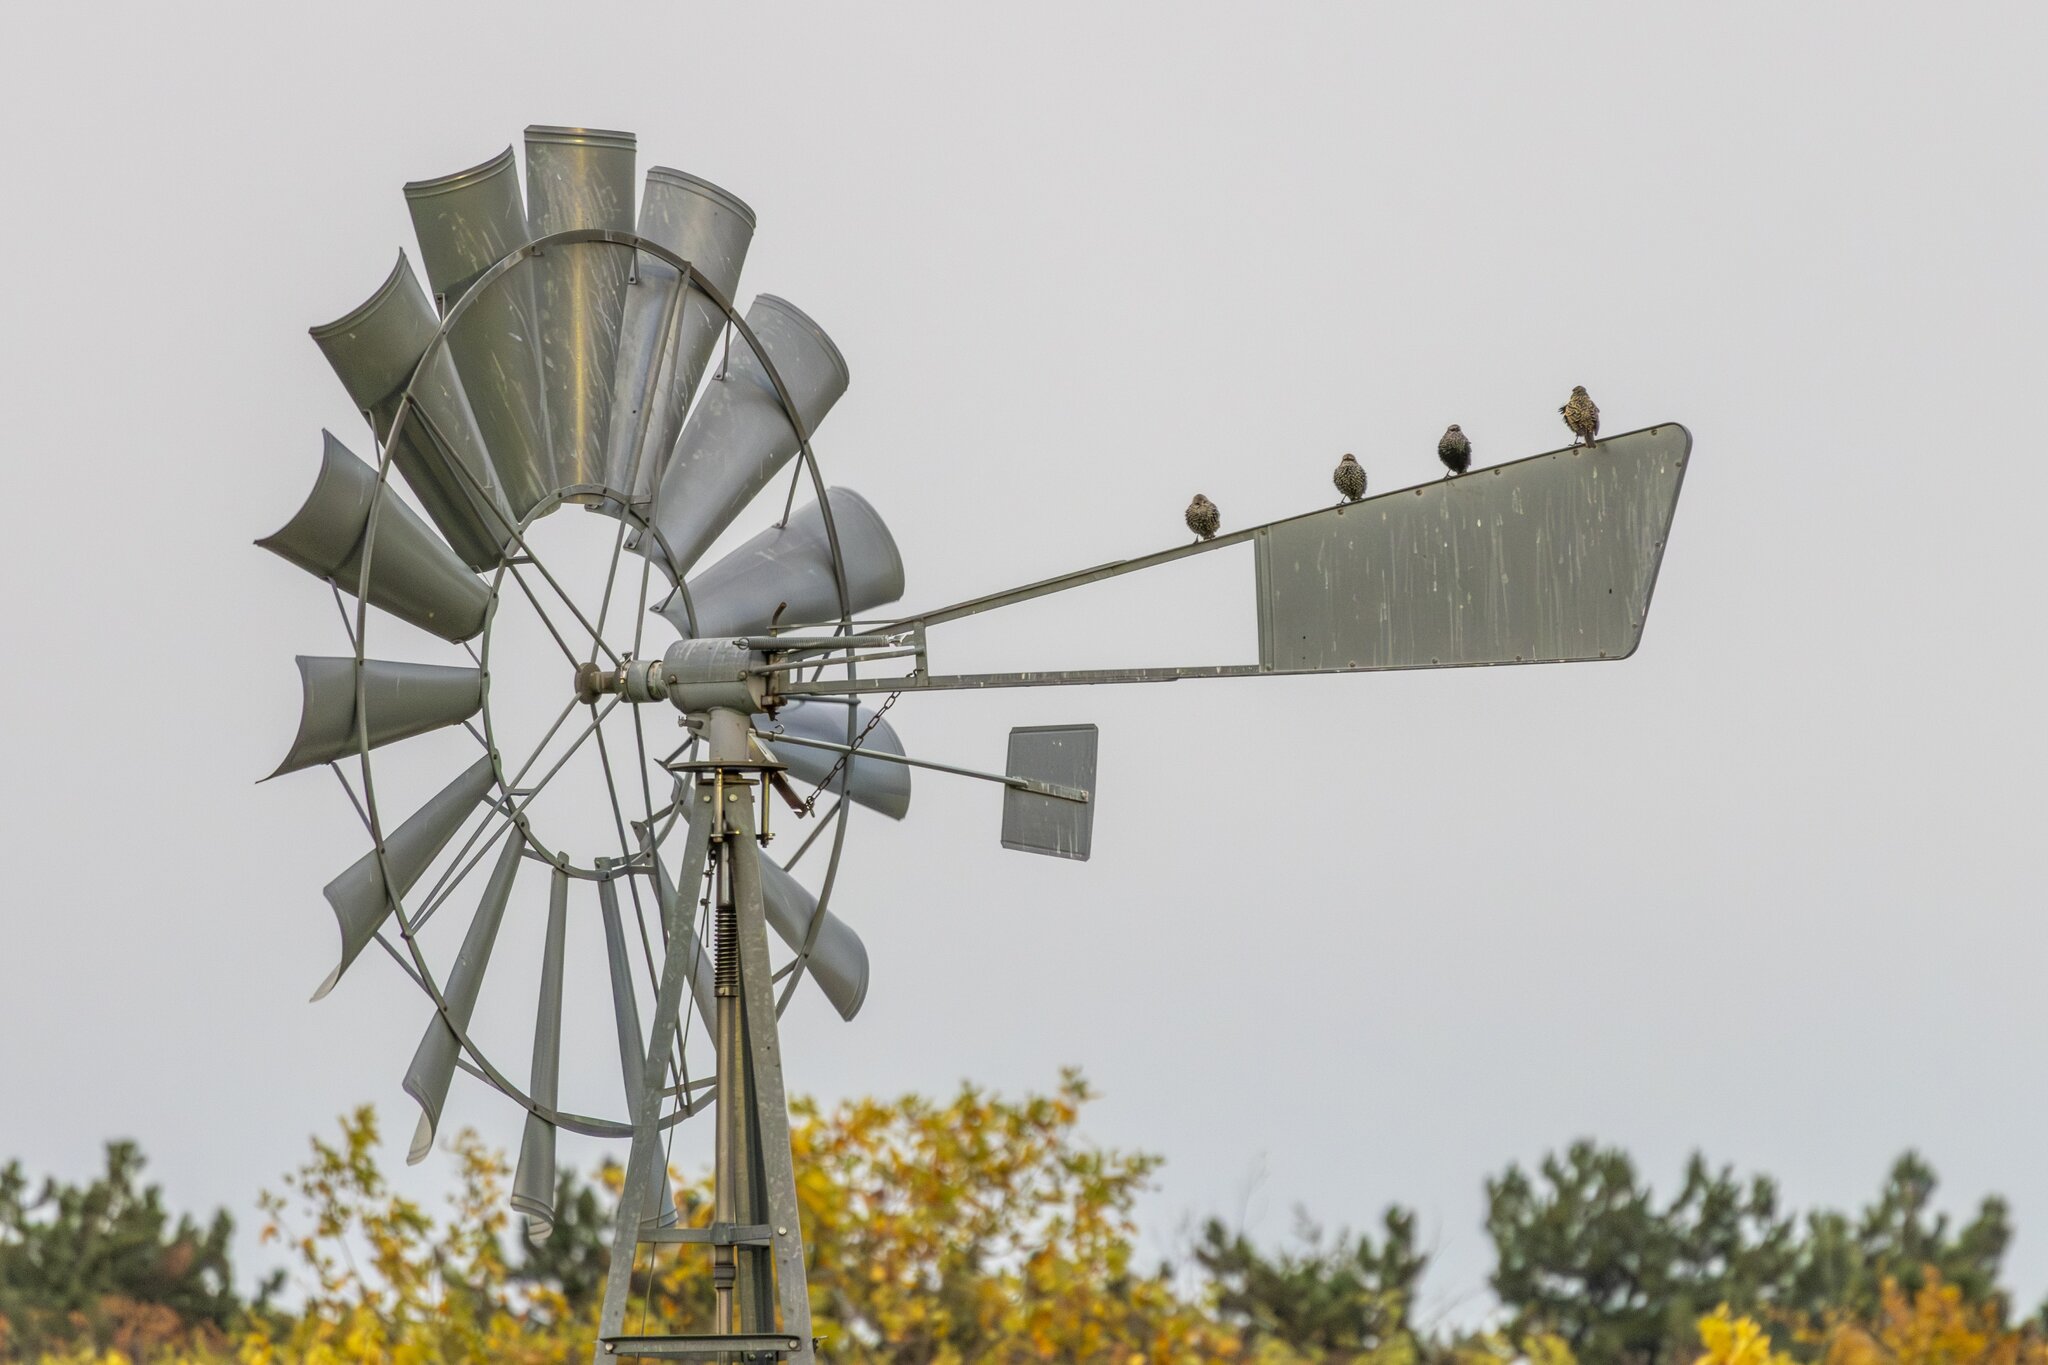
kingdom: Animalia
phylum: Chordata
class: Aves
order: Passeriformes
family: Sturnidae
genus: Sturnus
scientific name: Sturnus vulgaris
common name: Common starling
